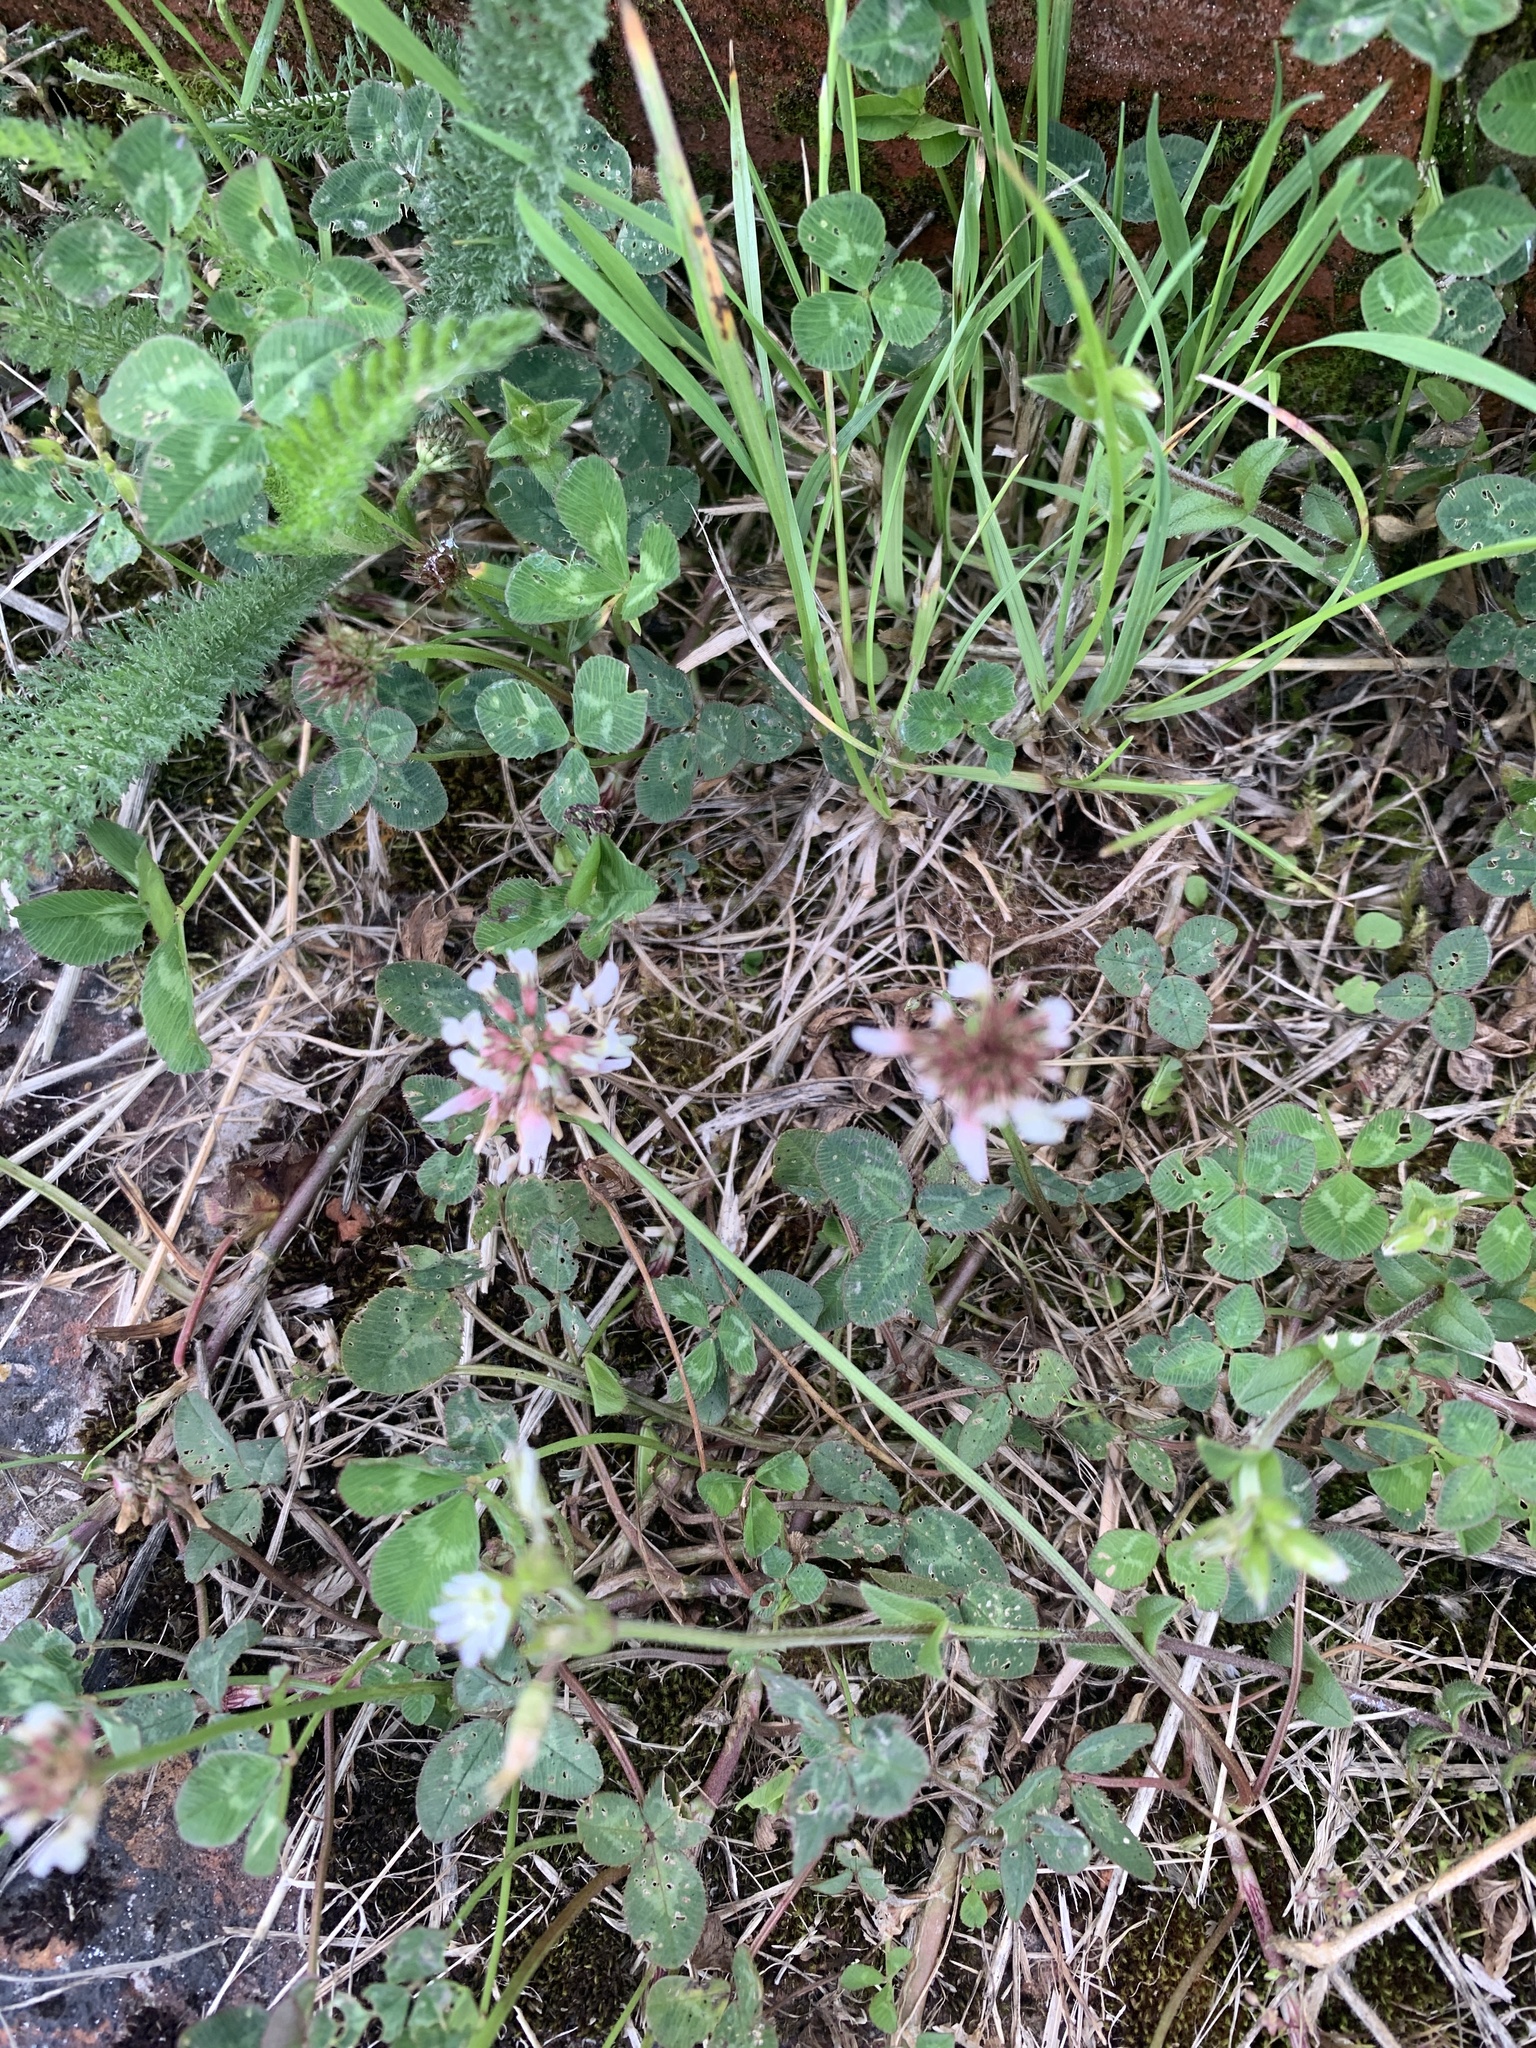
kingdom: Plantae
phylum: Tracheophyta
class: Magnoliopsida
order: Fabales
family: Fabaceae
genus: Trifolium
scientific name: Trifolium repens
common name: White clover
